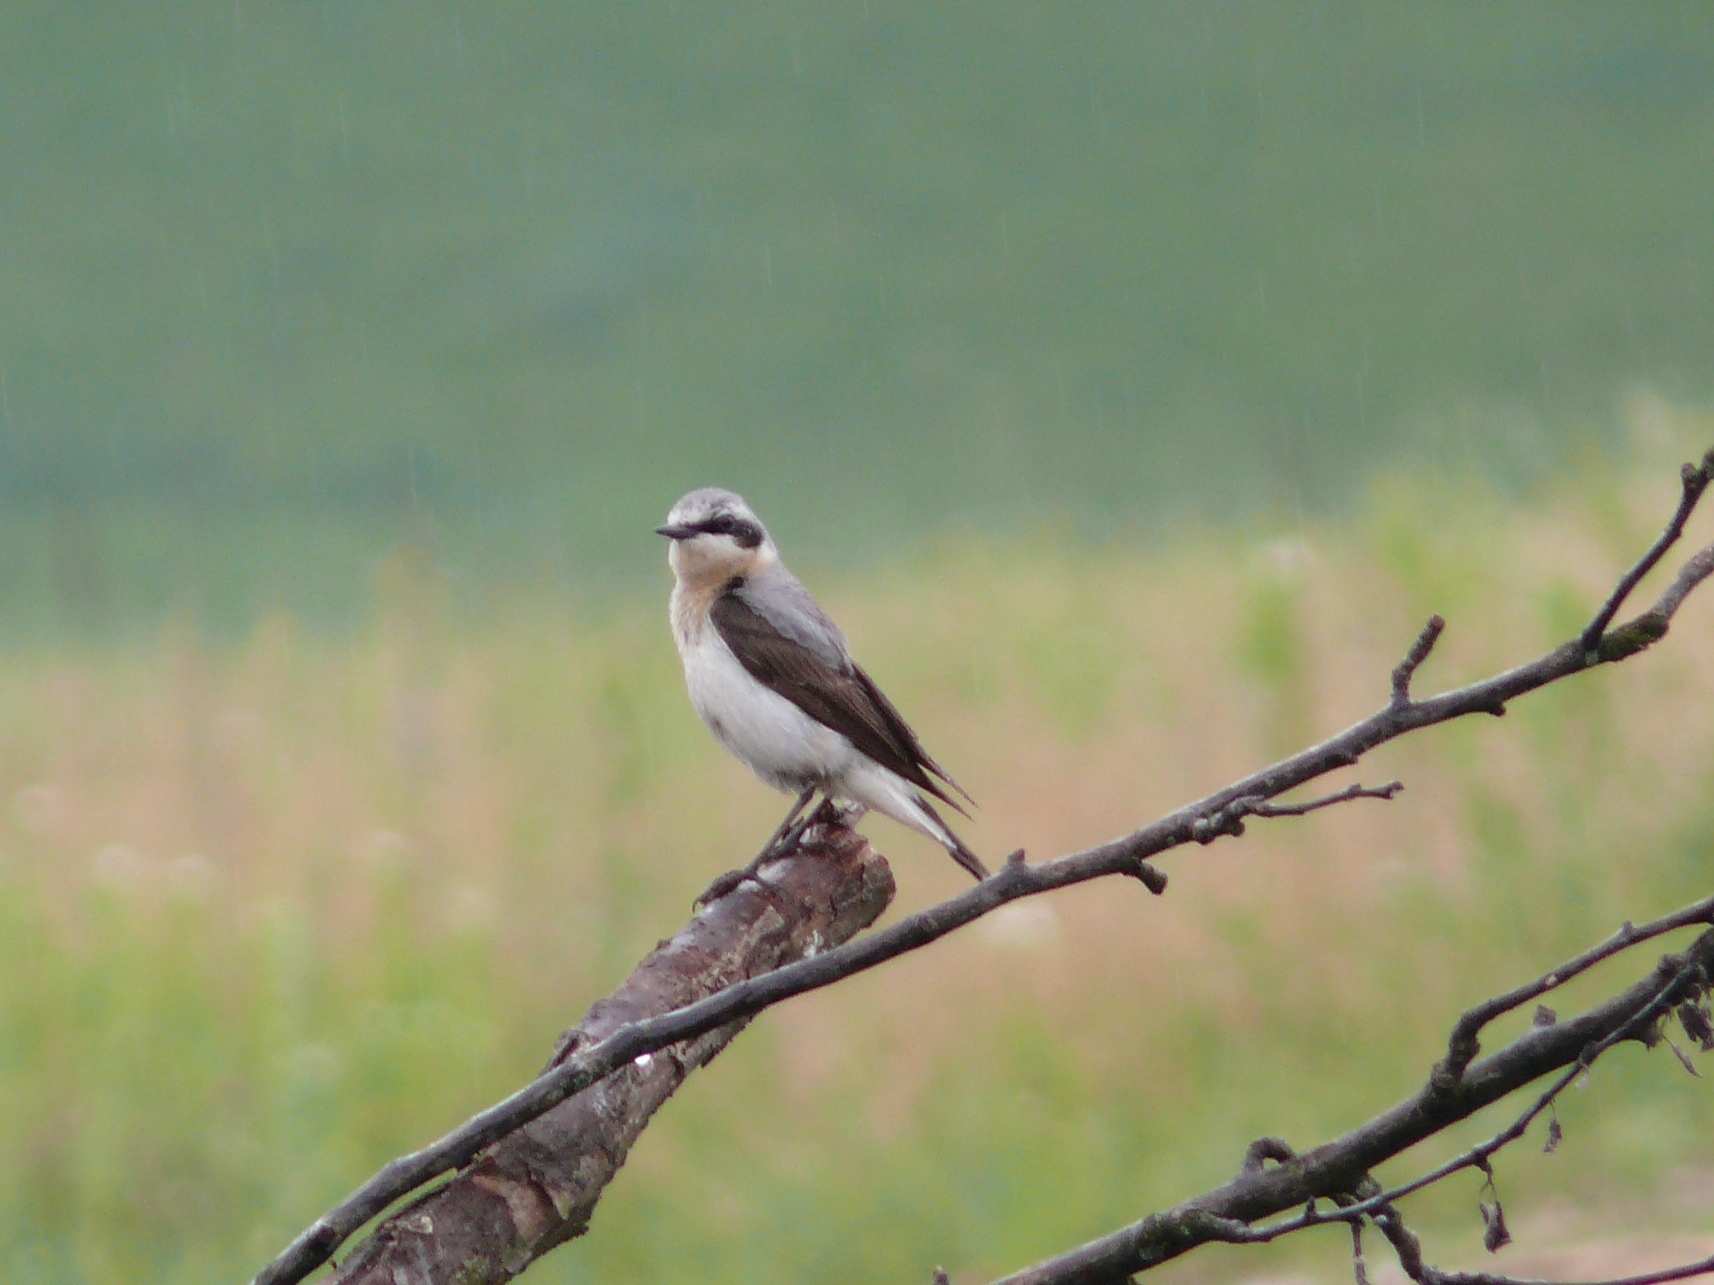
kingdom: Animalia
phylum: Chordata
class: Aves
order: Passeriformes
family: Muscicapidae
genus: Oenanthe
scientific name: Oenanthe oenanthe
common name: Northern wheatear
